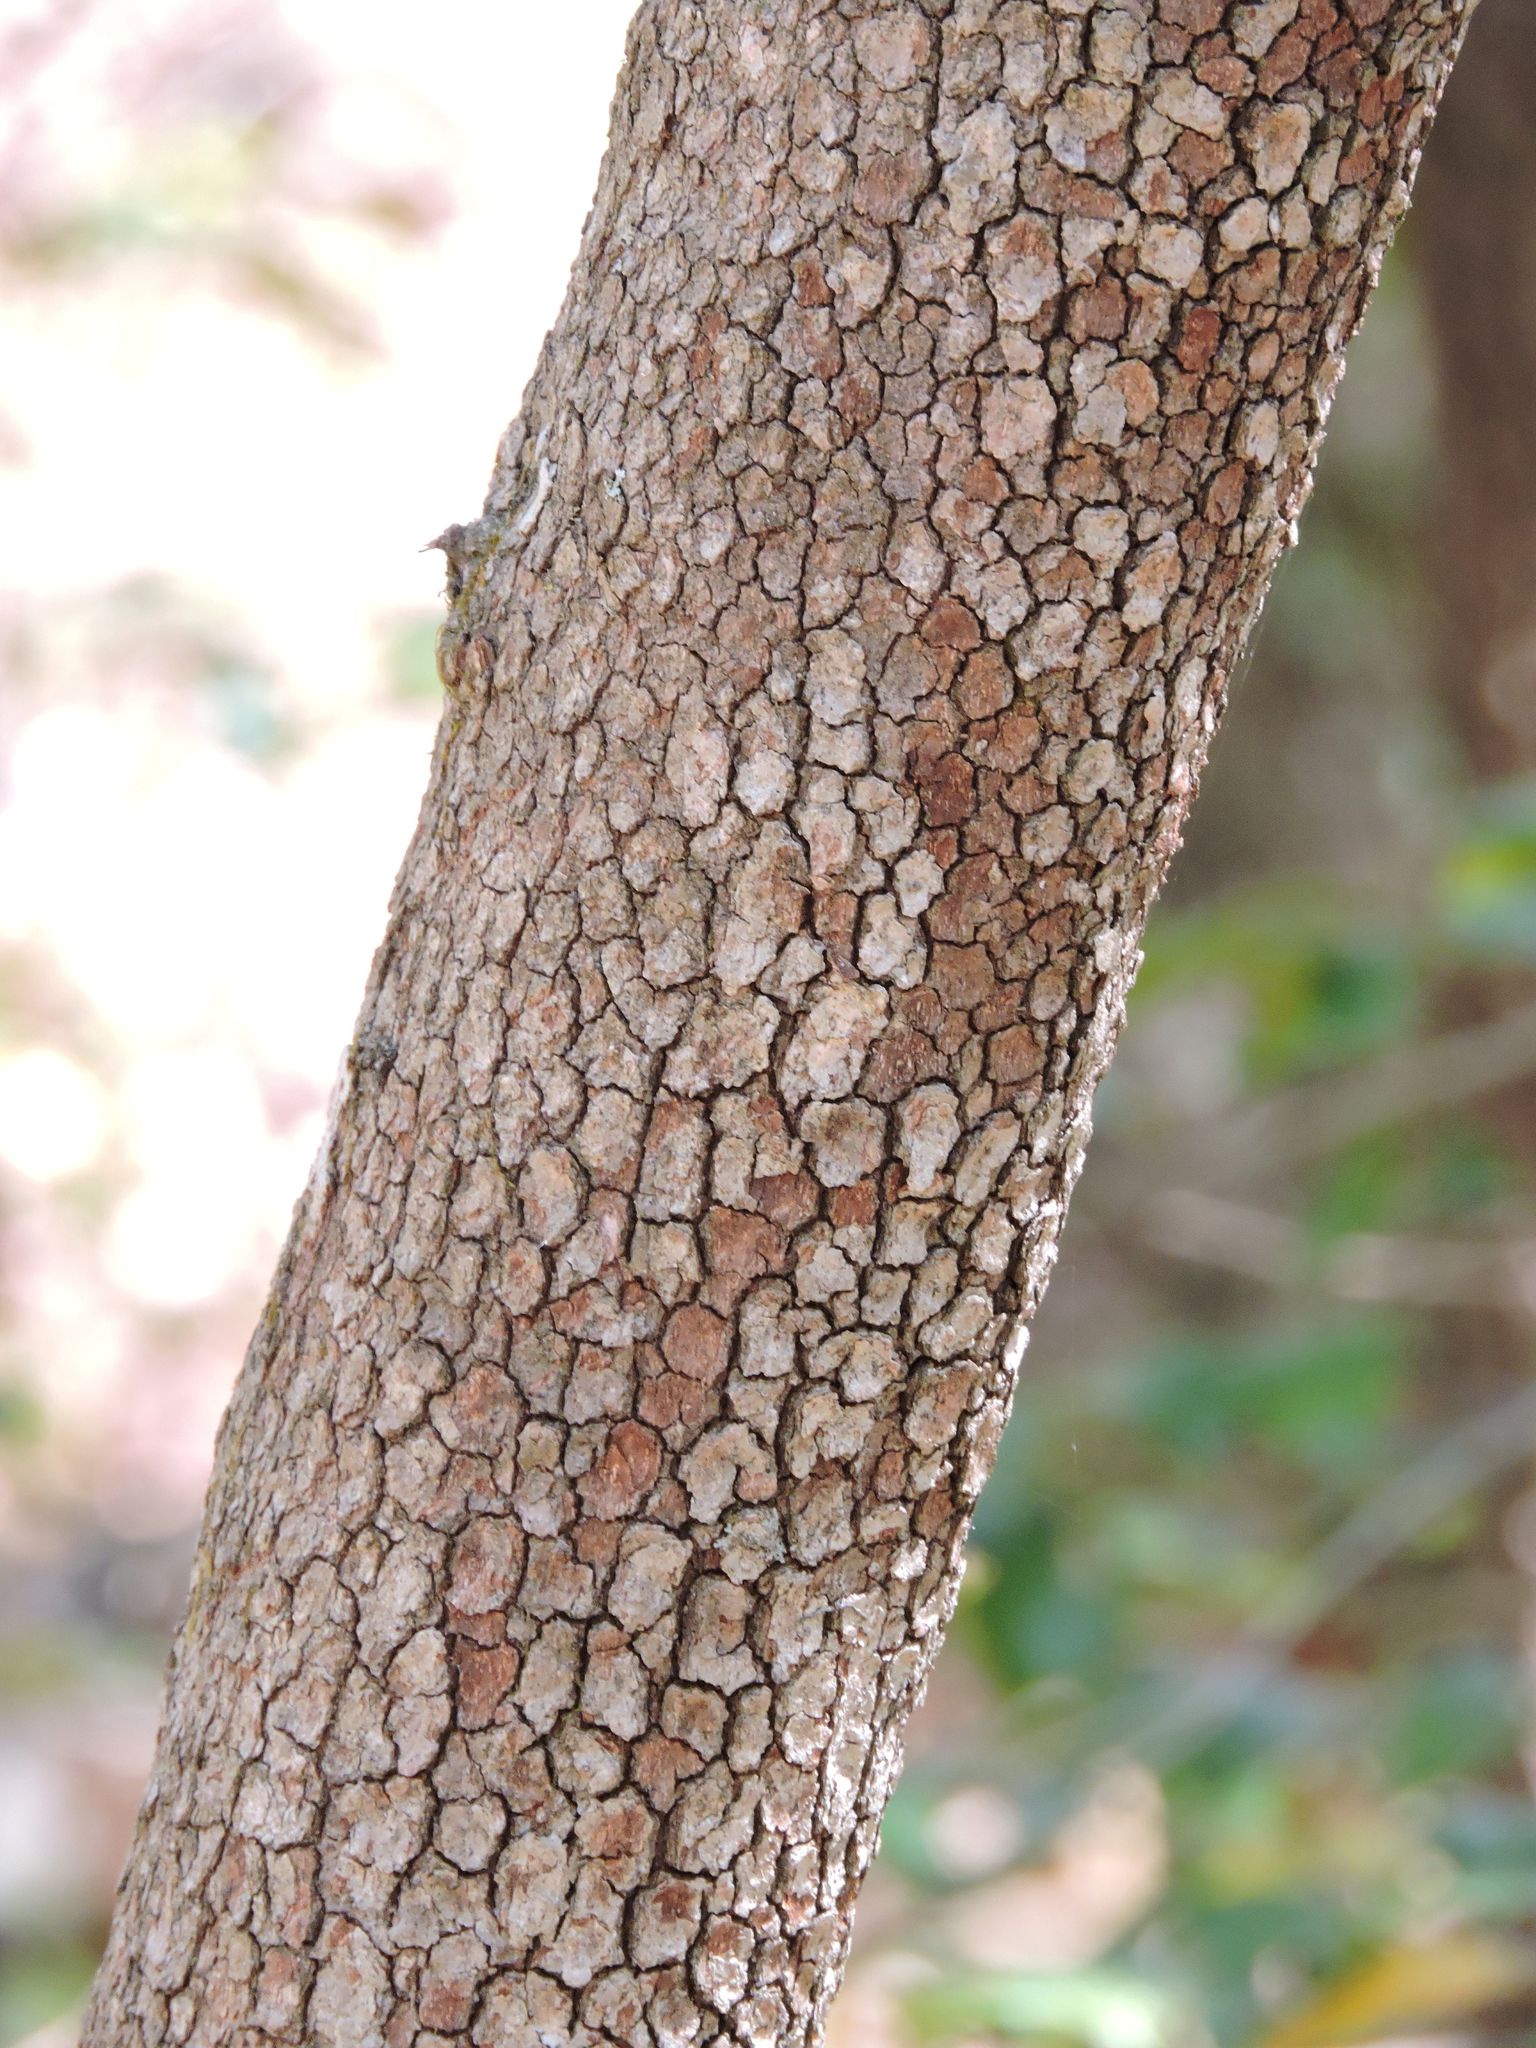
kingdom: Plantae
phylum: Tracheophyta
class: Magnoliopsida
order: Cornales
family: Cornaceae
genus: Cornus
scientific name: Cornus florida
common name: Flowering dogwood
